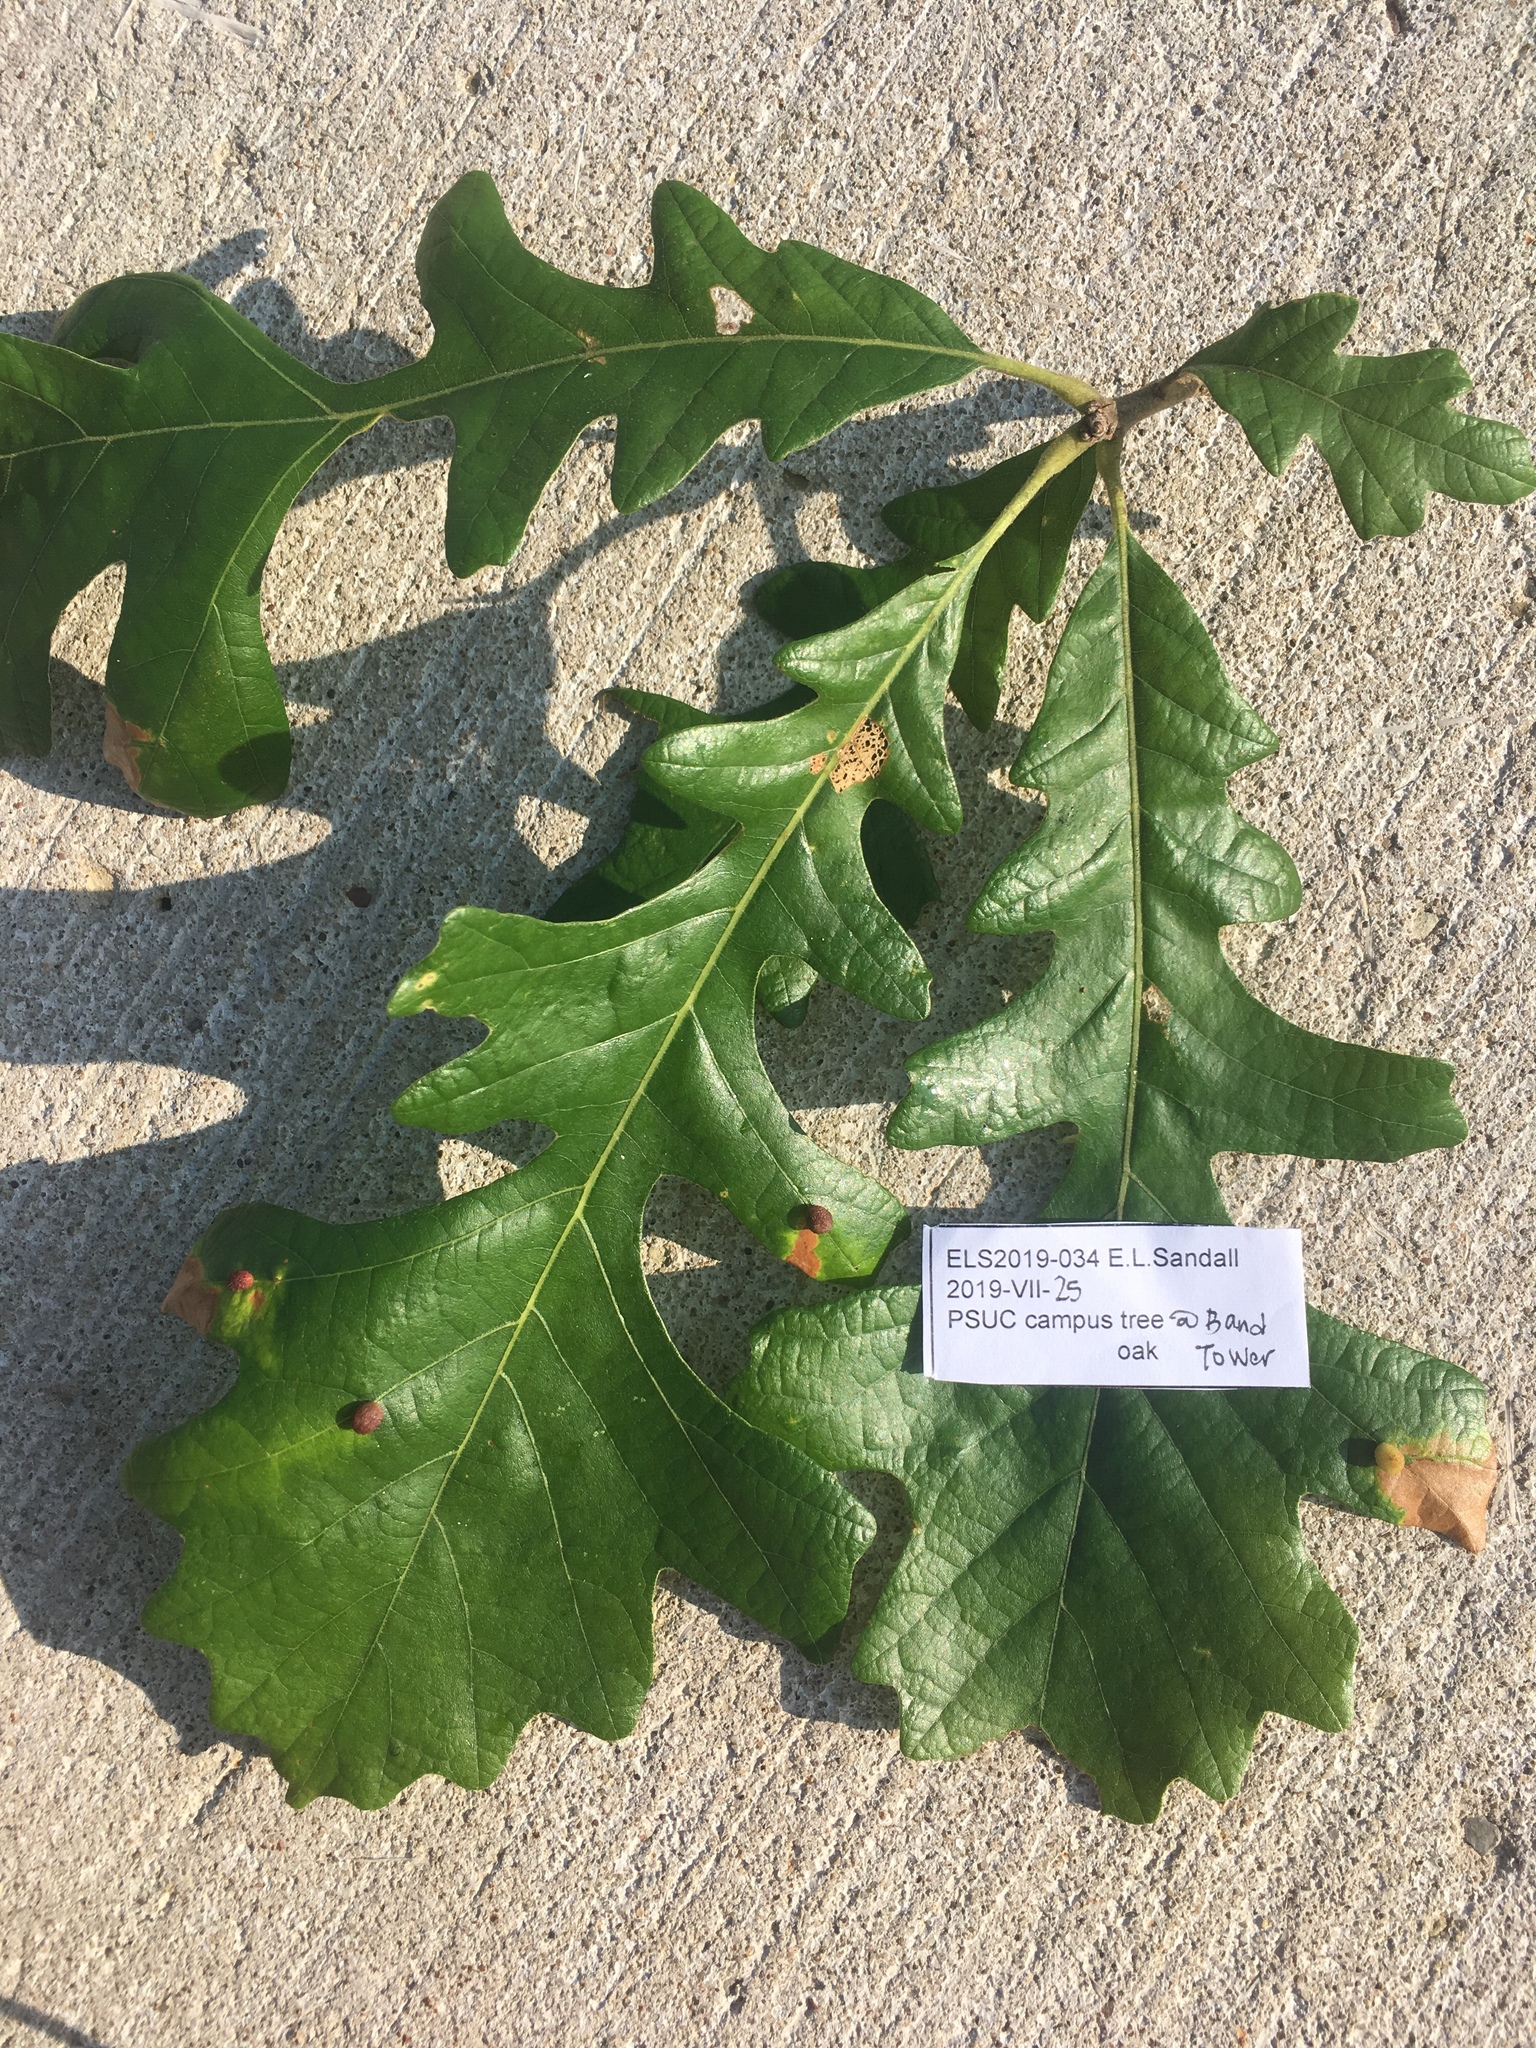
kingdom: Animalia
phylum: Arthropoda
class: Insecta
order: Hymenoptera
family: Cynipidae
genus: Acraspis
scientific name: Acraspis quercushirta
